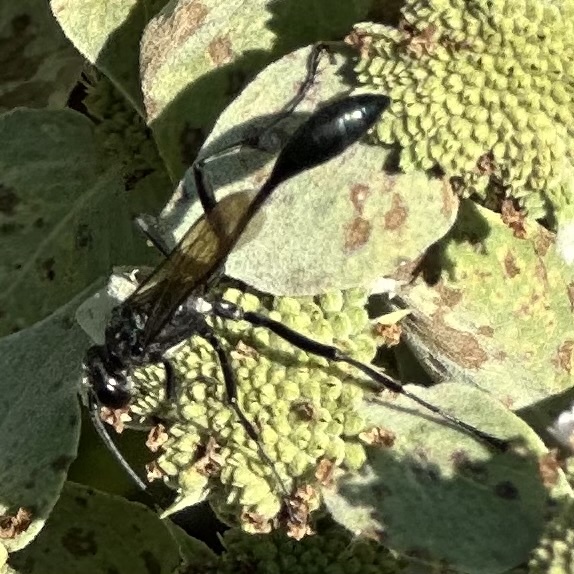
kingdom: Animalia
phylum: Arthropoda
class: Insecta
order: Hymenoptera
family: Sphecidae
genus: Eremnophila
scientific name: Eremnophila aureonotata
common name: Gold-marked thread-waisted wasp
